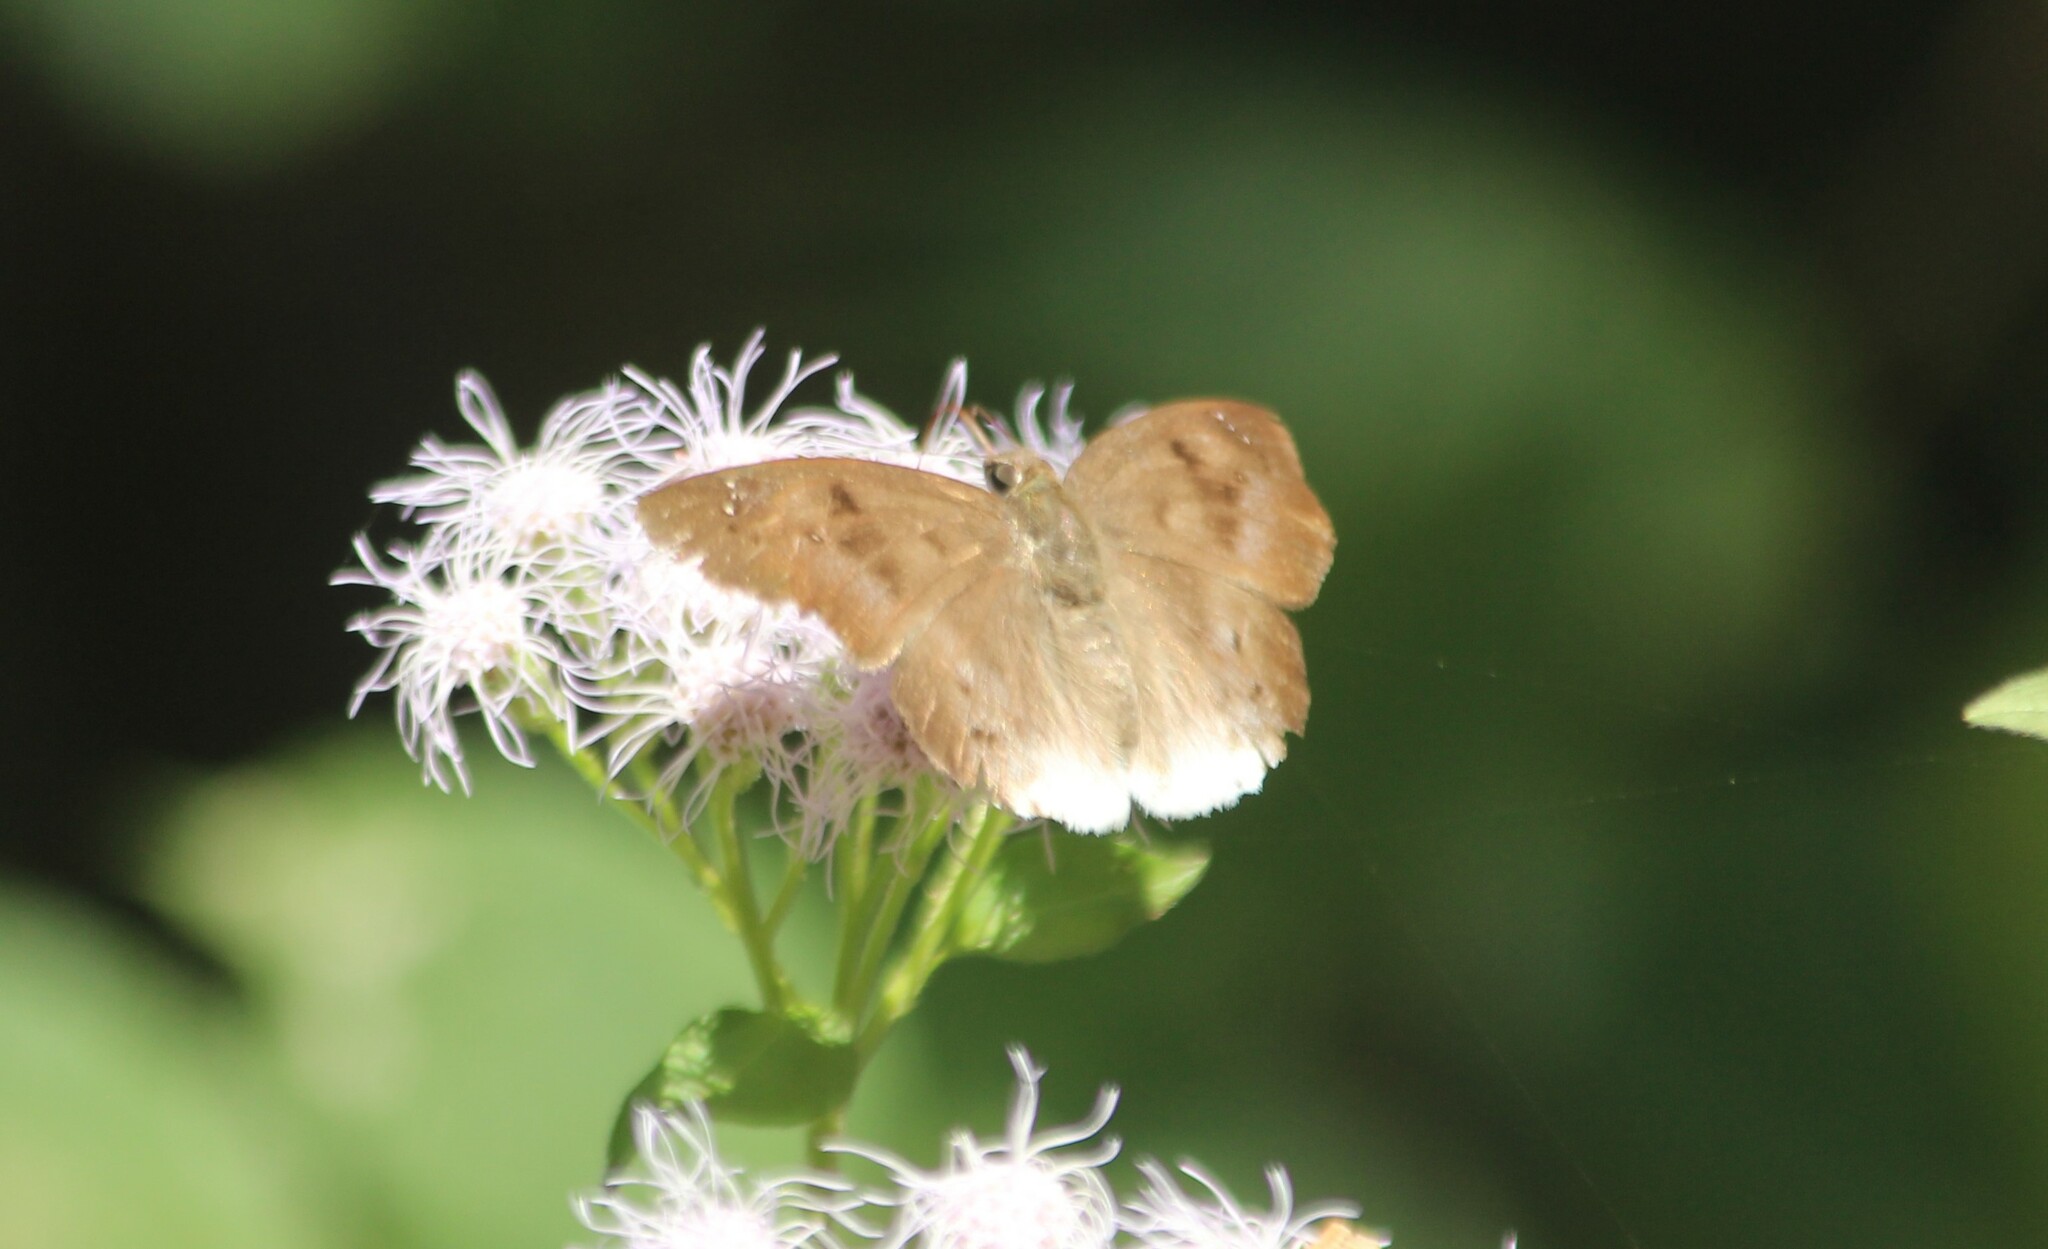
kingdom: Animalia
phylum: Arthropoda
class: Insecta
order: Lepidoptera
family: Hesperiidae
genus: Tagiades
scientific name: Tagiades japetus
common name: Pied flat
